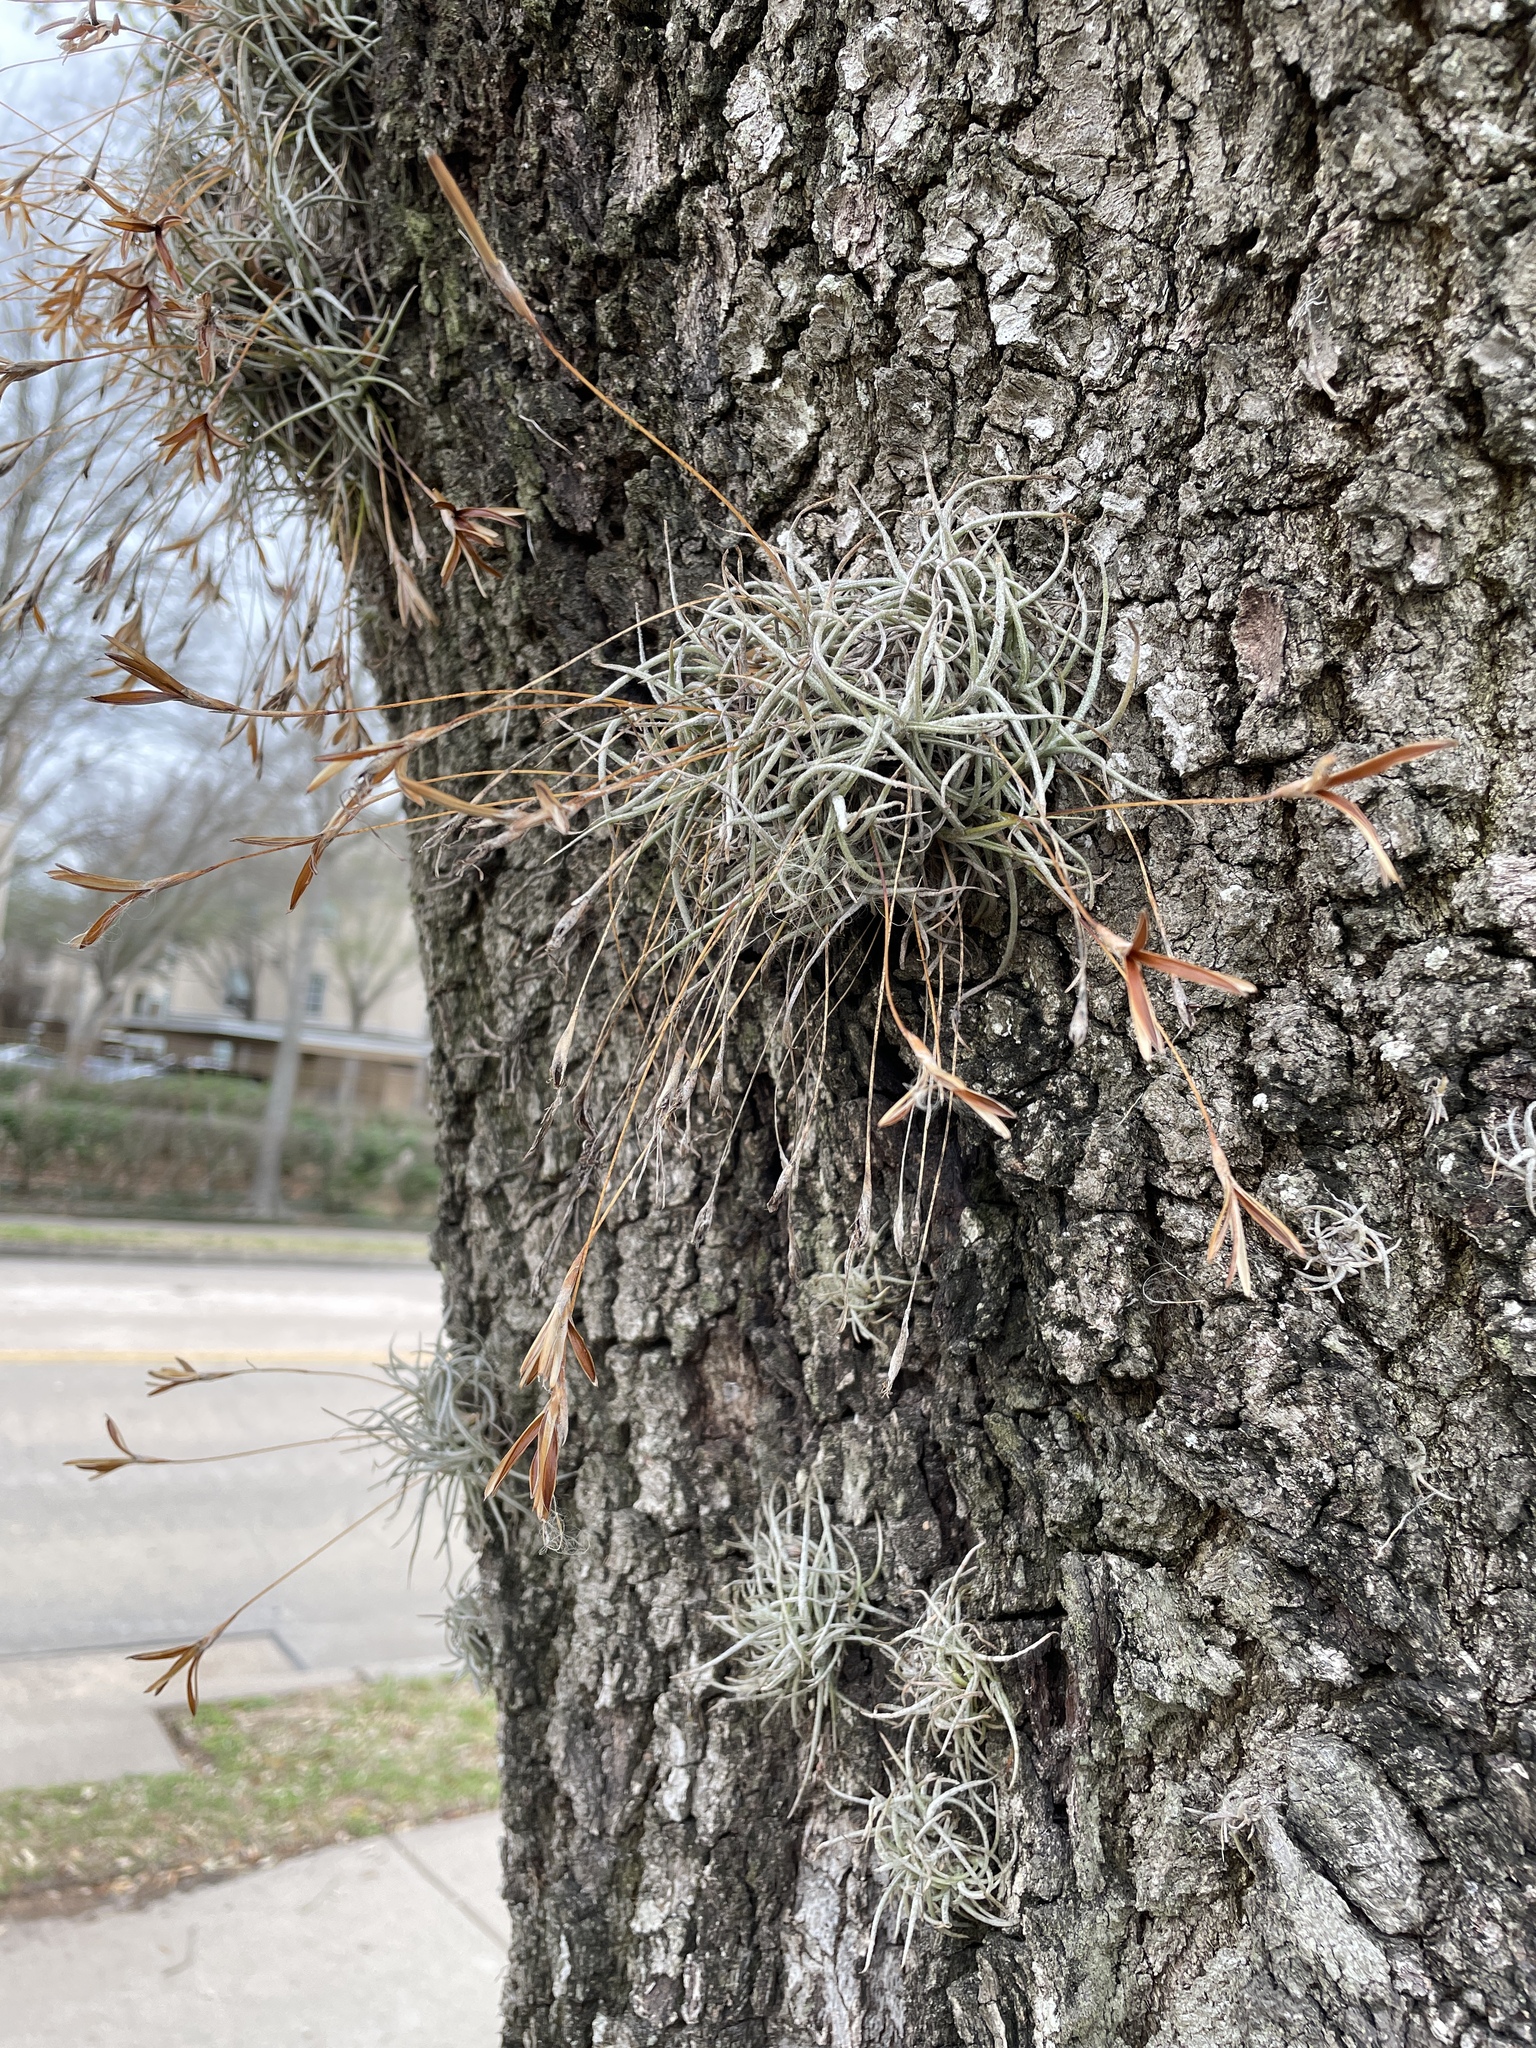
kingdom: Plantae
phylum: Tracheophyta
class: Liliopsida
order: Poales
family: Bromeliaceae
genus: Tillandsia
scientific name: Tillandsia recurvata
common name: Small ballmoss
